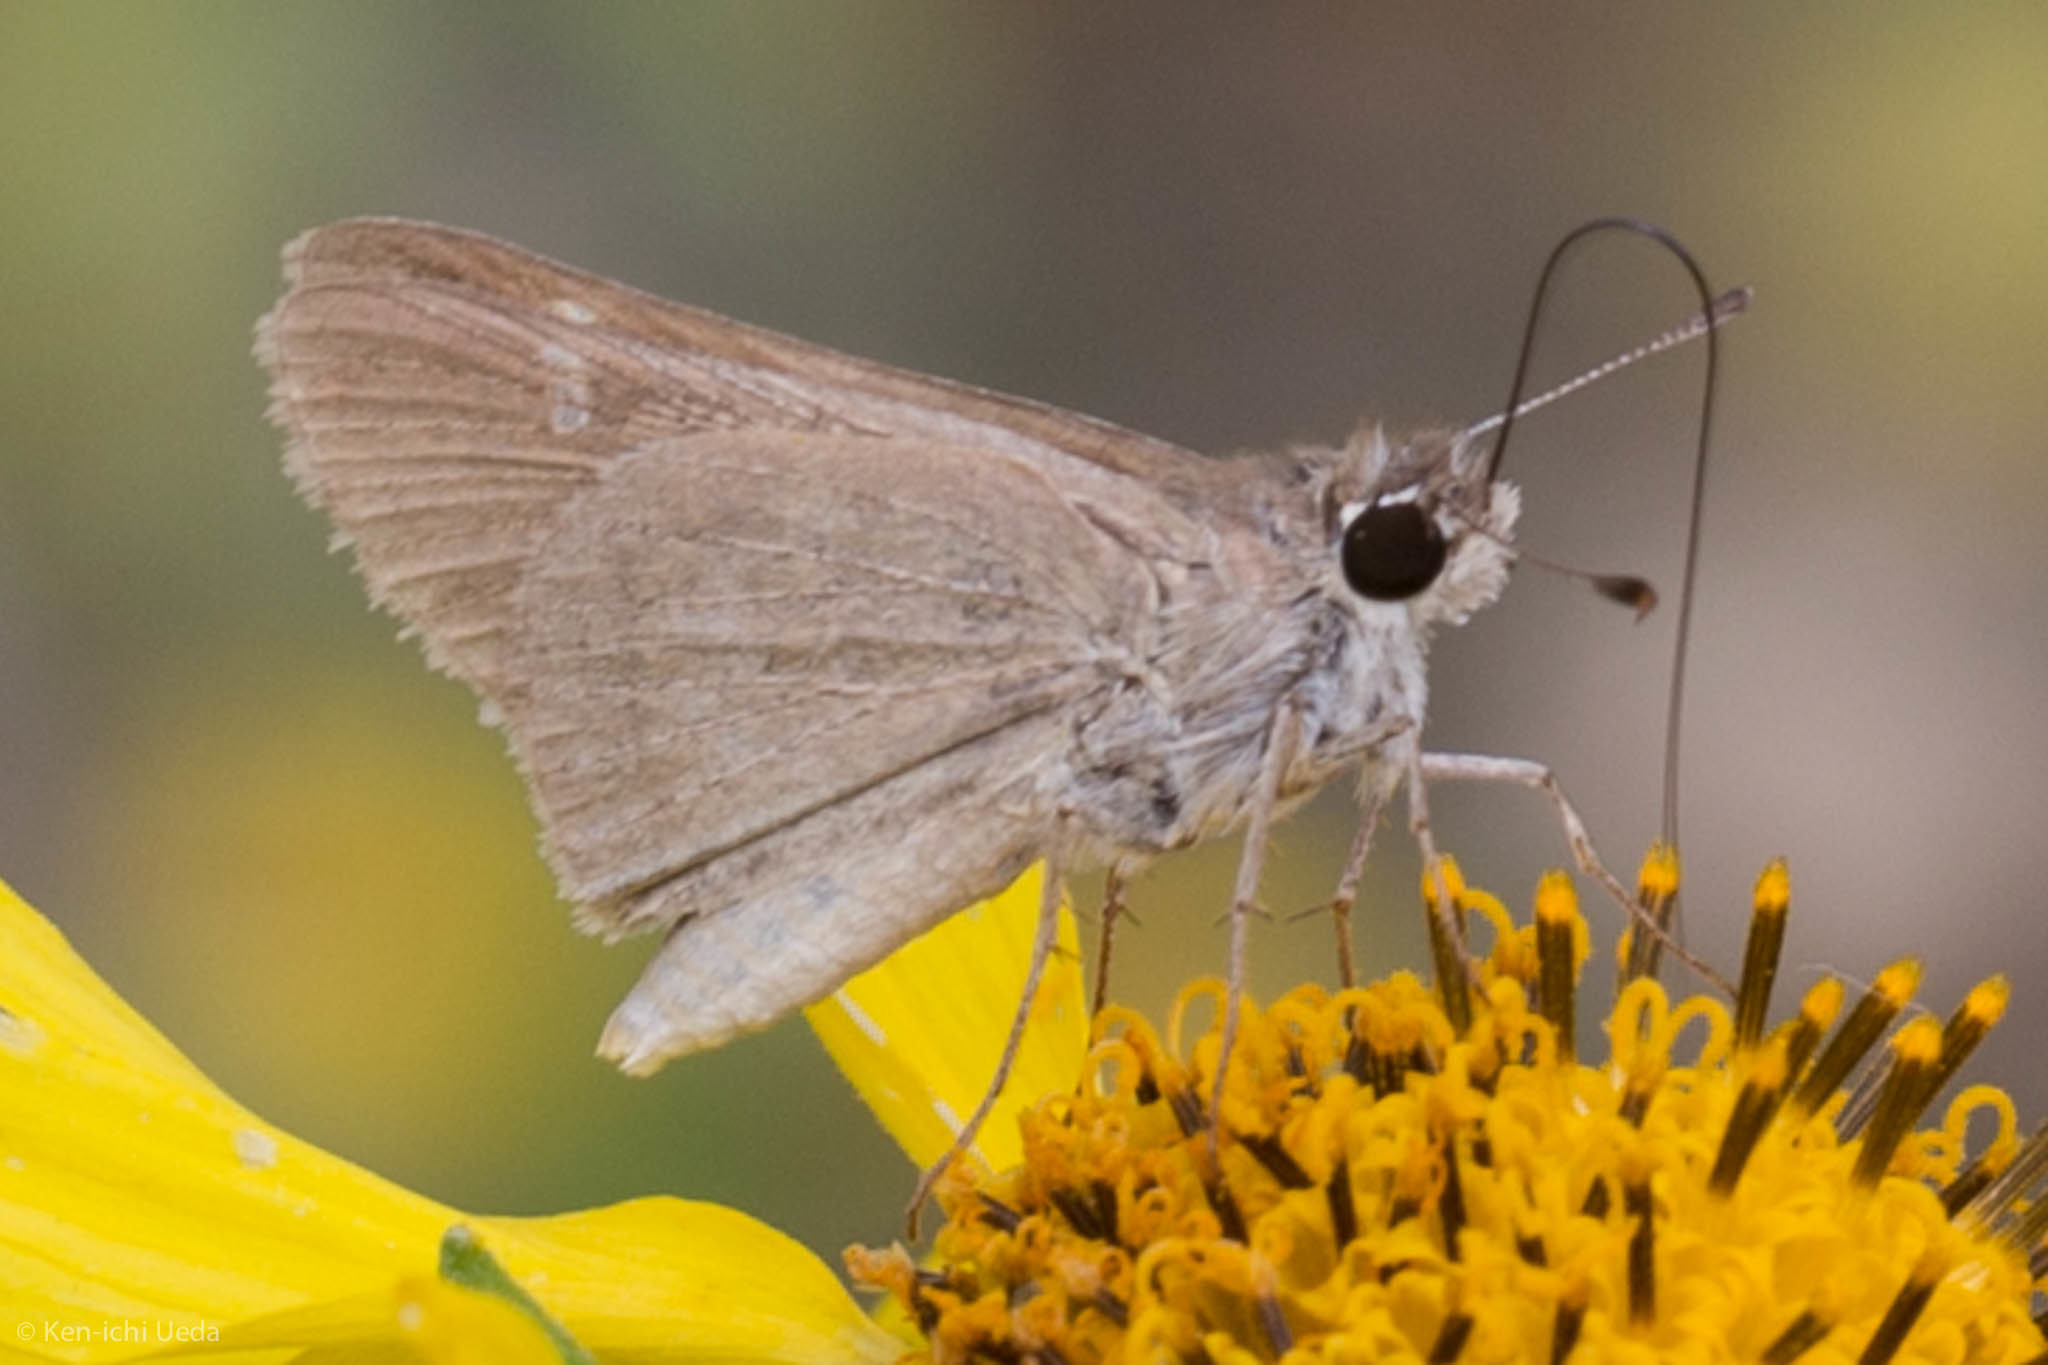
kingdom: Animalia
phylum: Arthropoda
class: Insecta
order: Lepidoptera
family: Hesperiidae
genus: Lerodea
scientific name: Lerodea eufala
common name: Eufala skipper
